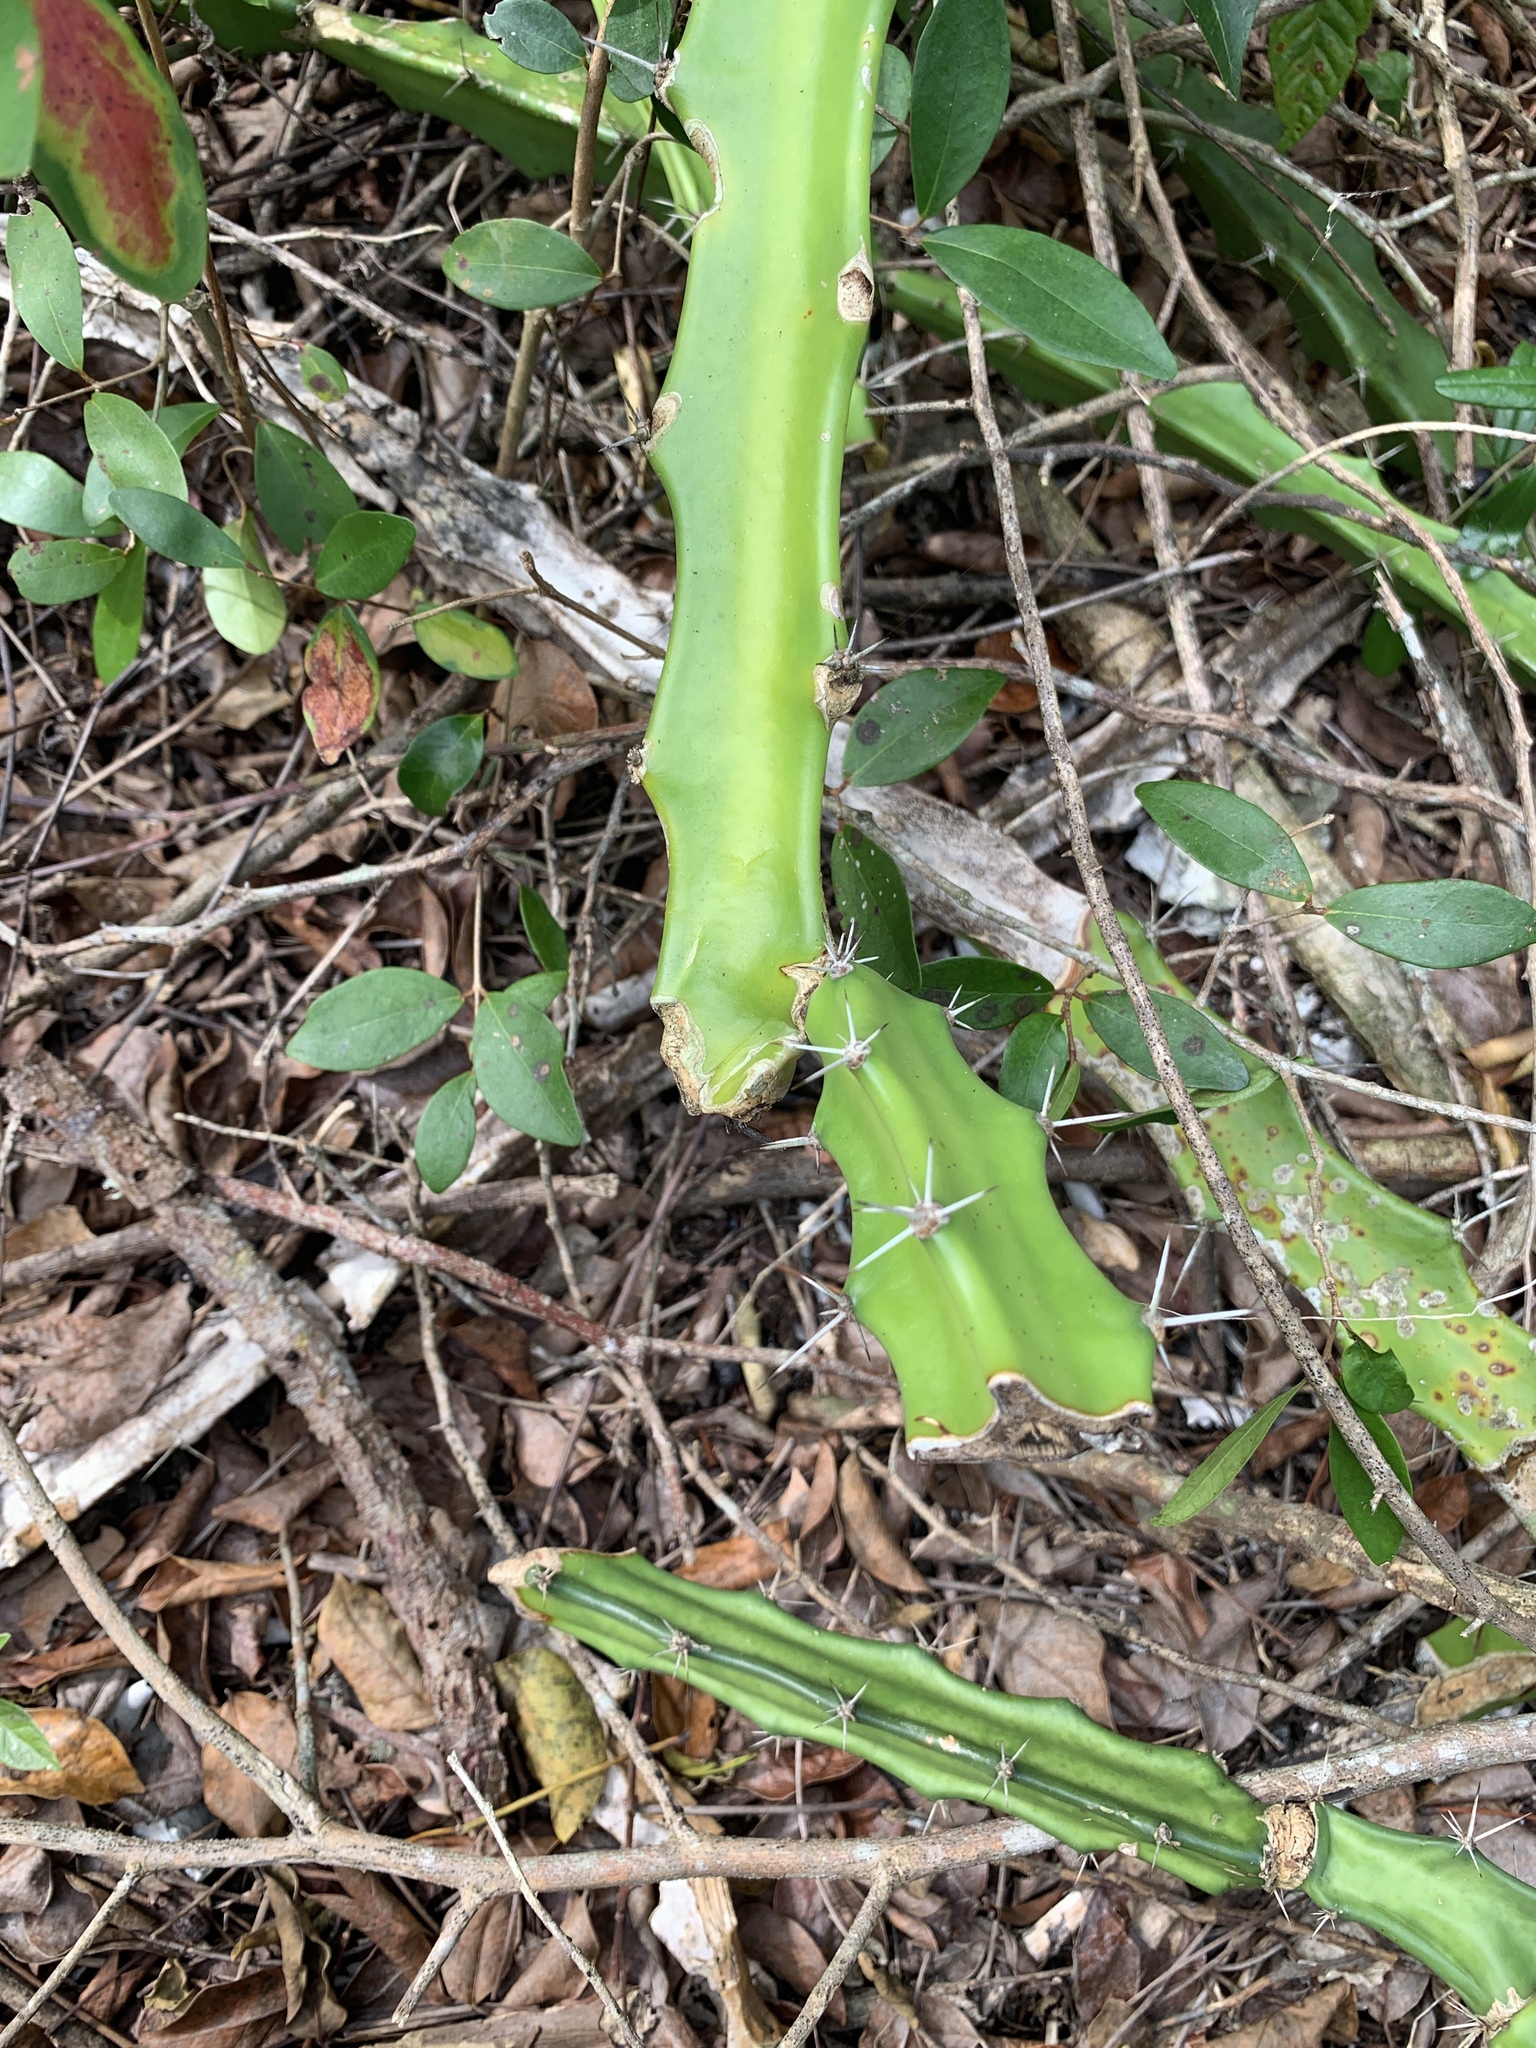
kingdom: Plantae
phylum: Tracheophyta
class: Magnoliopsida
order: Caryophyllales
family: Cactaceae
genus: Acanthocereus
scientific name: Acanthocereus tetragonus
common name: Triangle cactus
